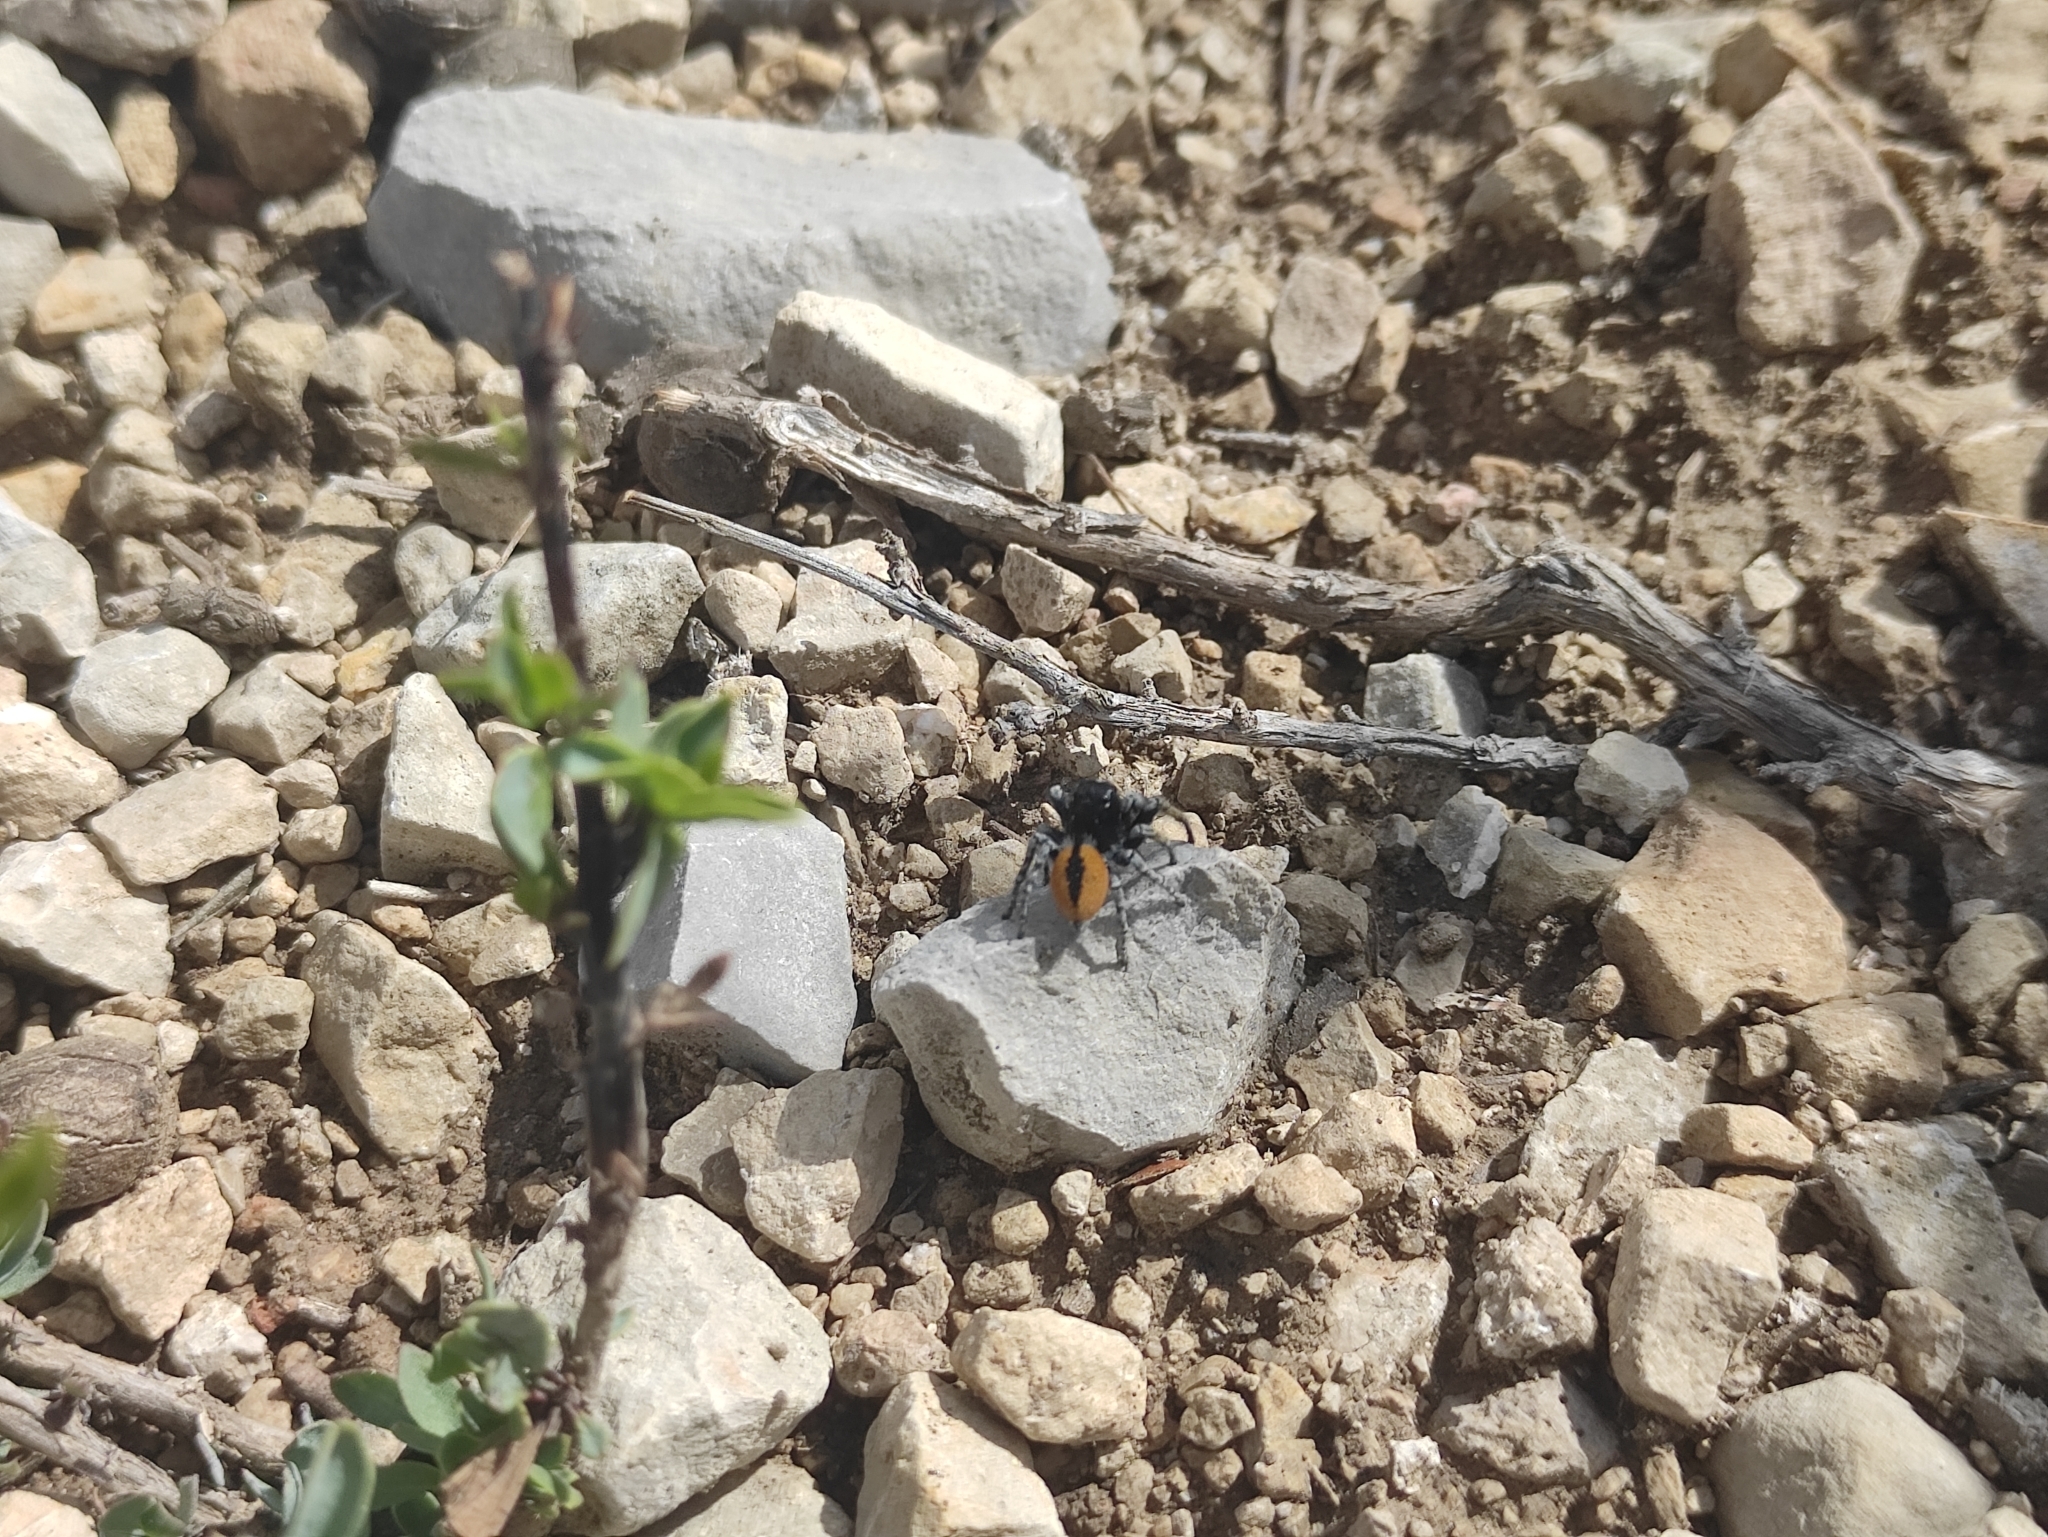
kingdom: Animalia
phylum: Arthropoda
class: Arachnida
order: Araneae
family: Salticidae
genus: Philaeus
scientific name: Philaeus chrysops
